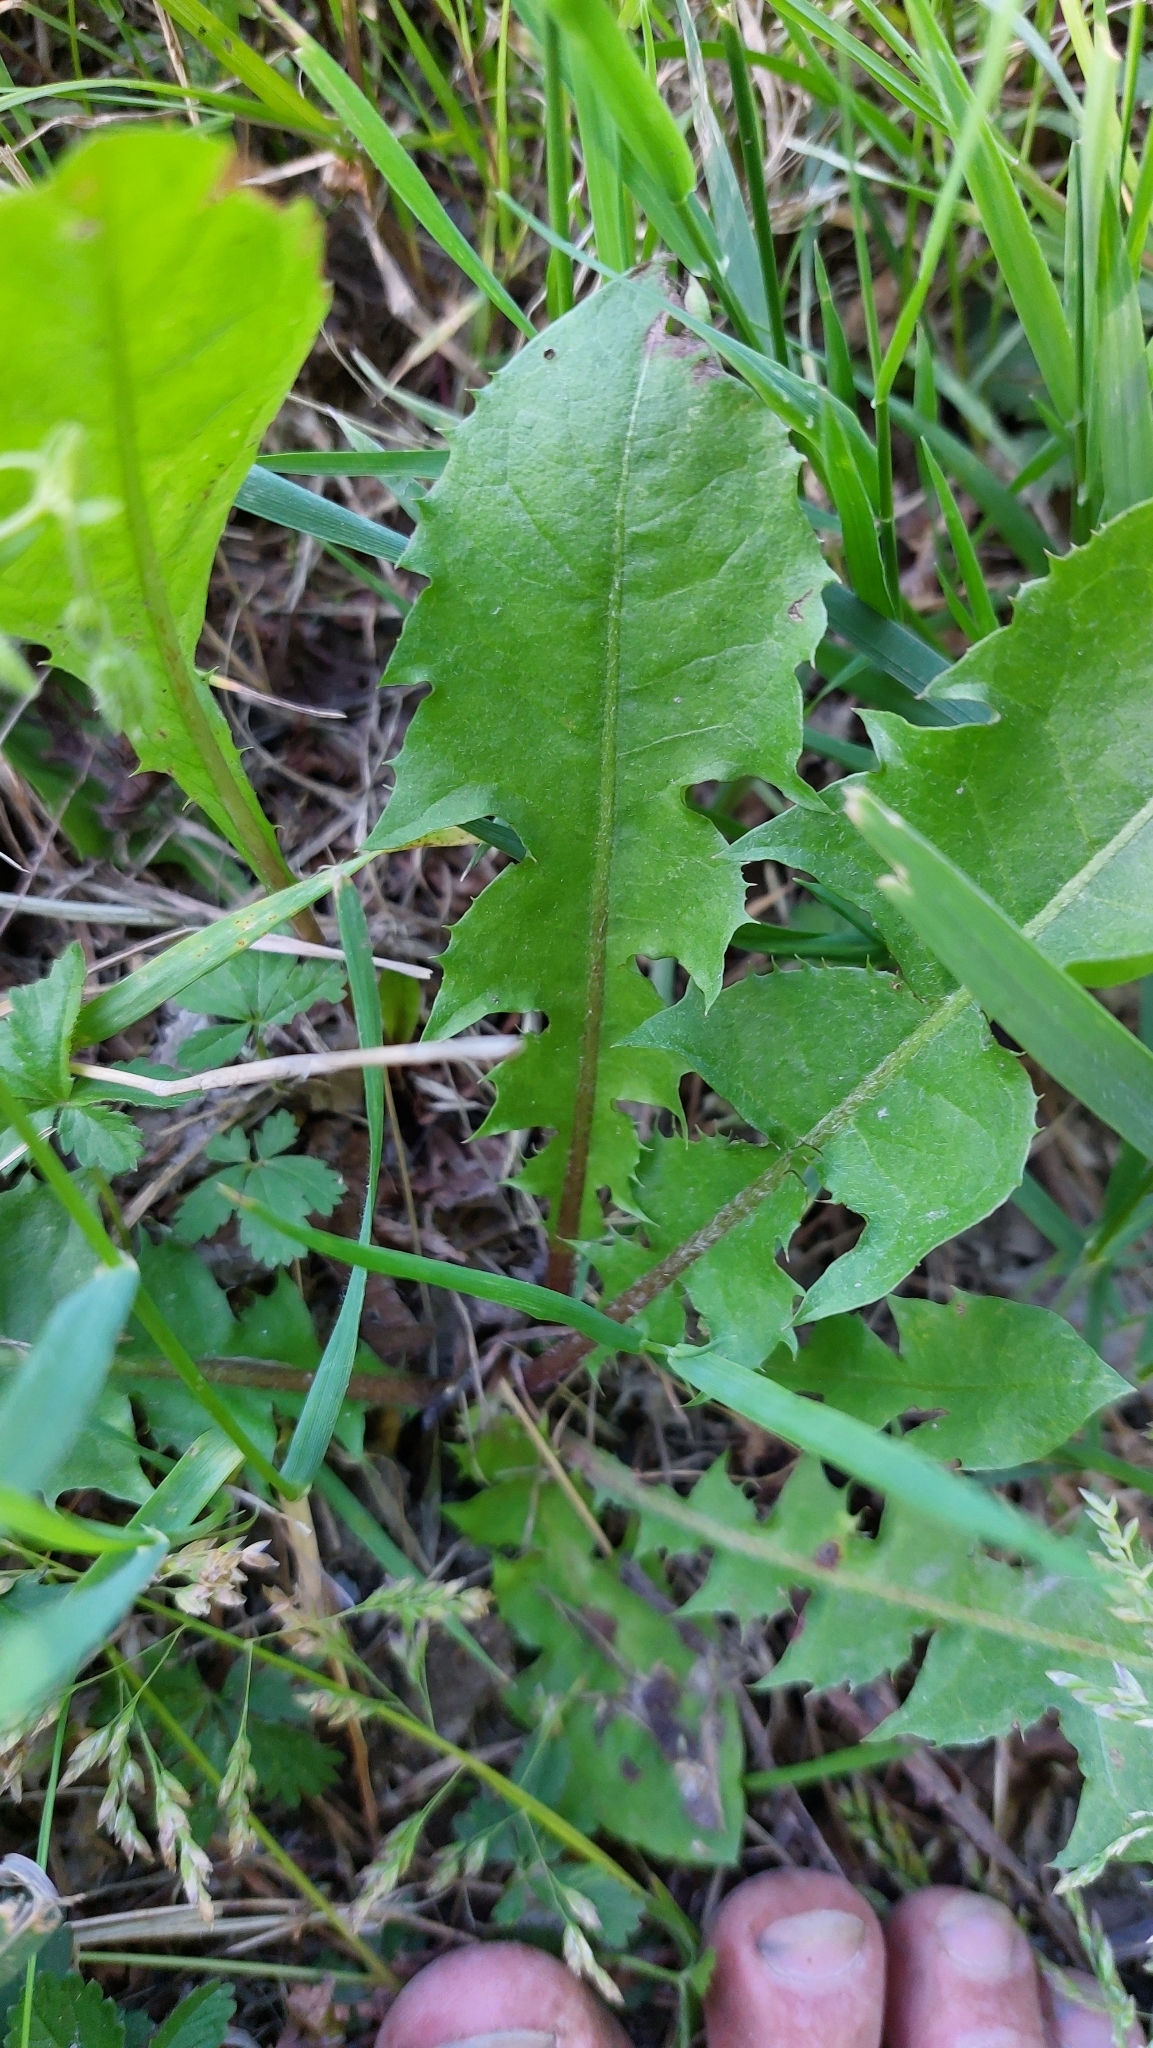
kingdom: Plantae
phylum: Tracheophyta
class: Magnoliopsida
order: Asterales
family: Asteraceae
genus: Taraxacum
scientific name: Taraxacum
